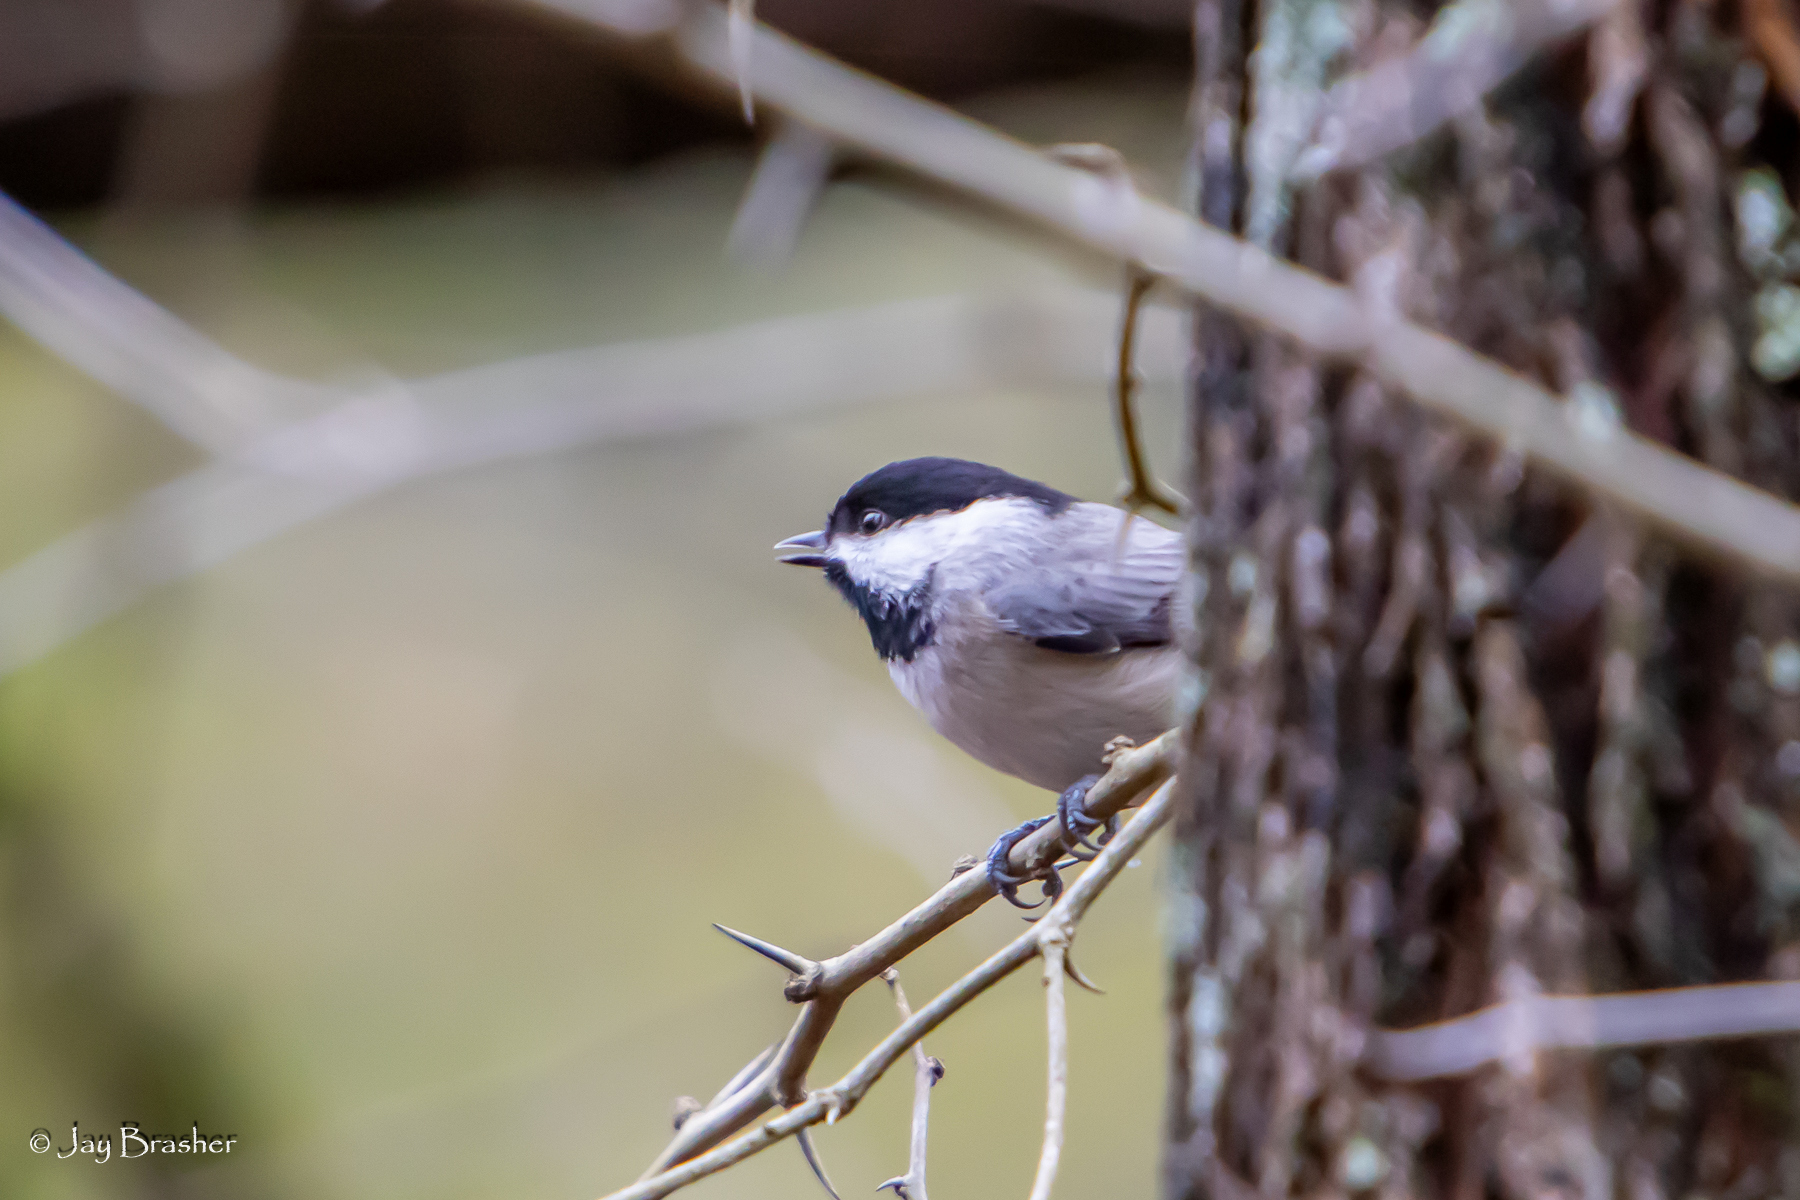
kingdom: Animalia
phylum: Chordata
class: Aves
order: Passeriformes
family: Paridae
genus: Poecile
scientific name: Poecile carolinensis
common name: Carolina chickadee
